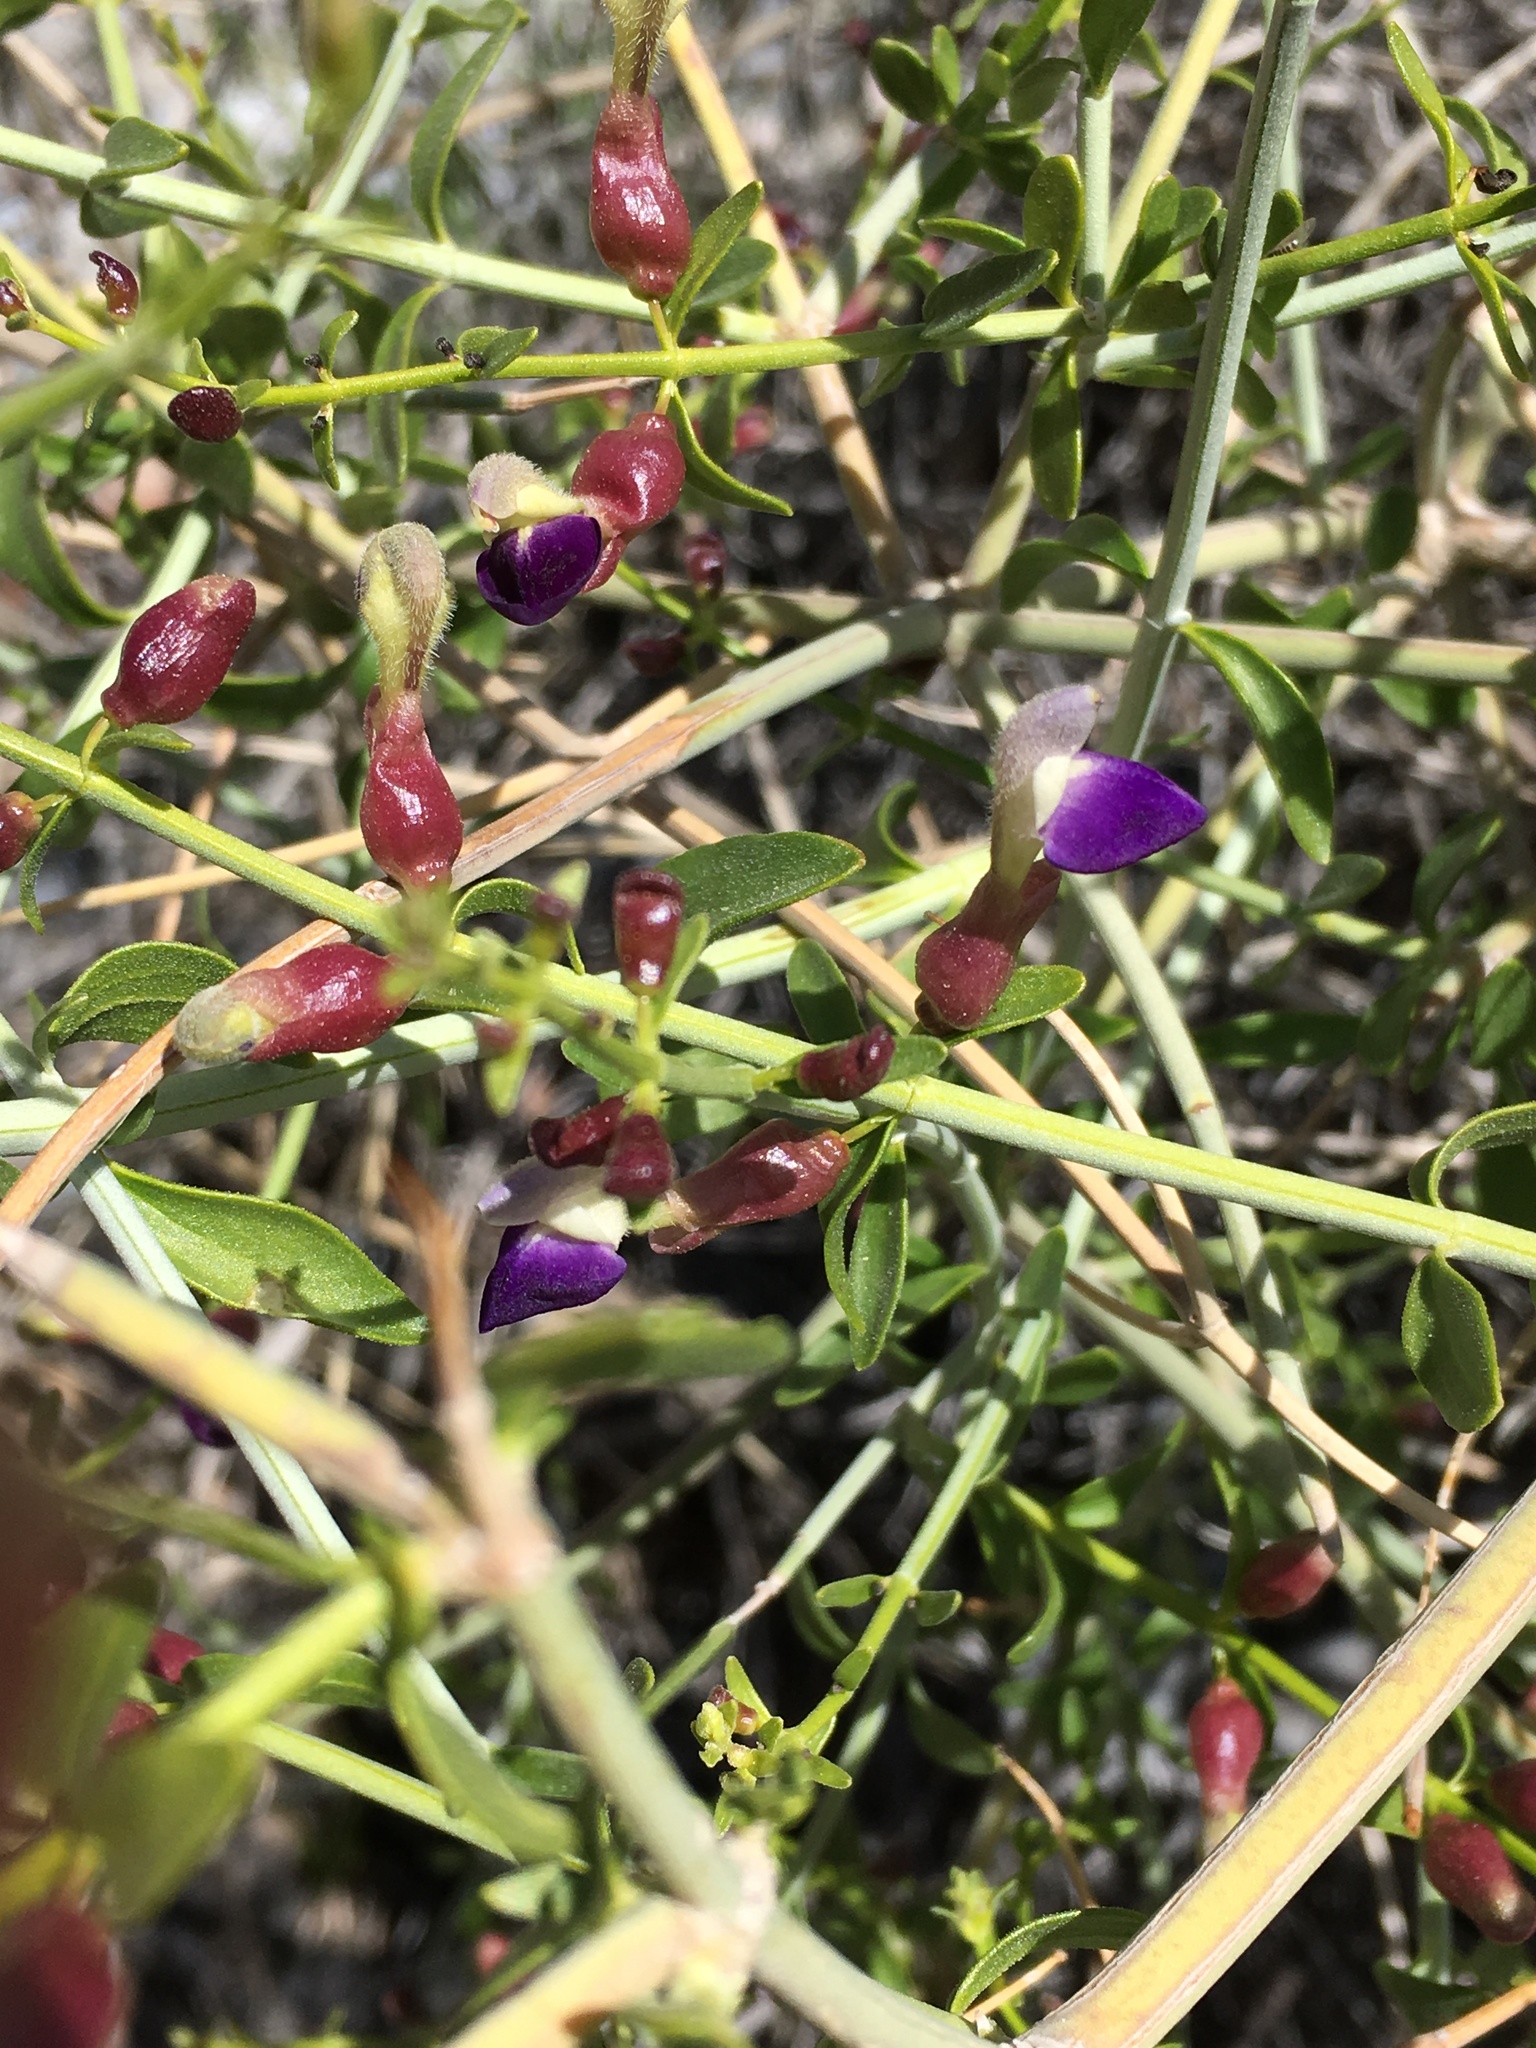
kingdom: Plantae
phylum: Tracheophyta
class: Magnoliopsida
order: Lamiales
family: Lamiaceae
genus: Scutellaria
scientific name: Scutellaria mexicana
